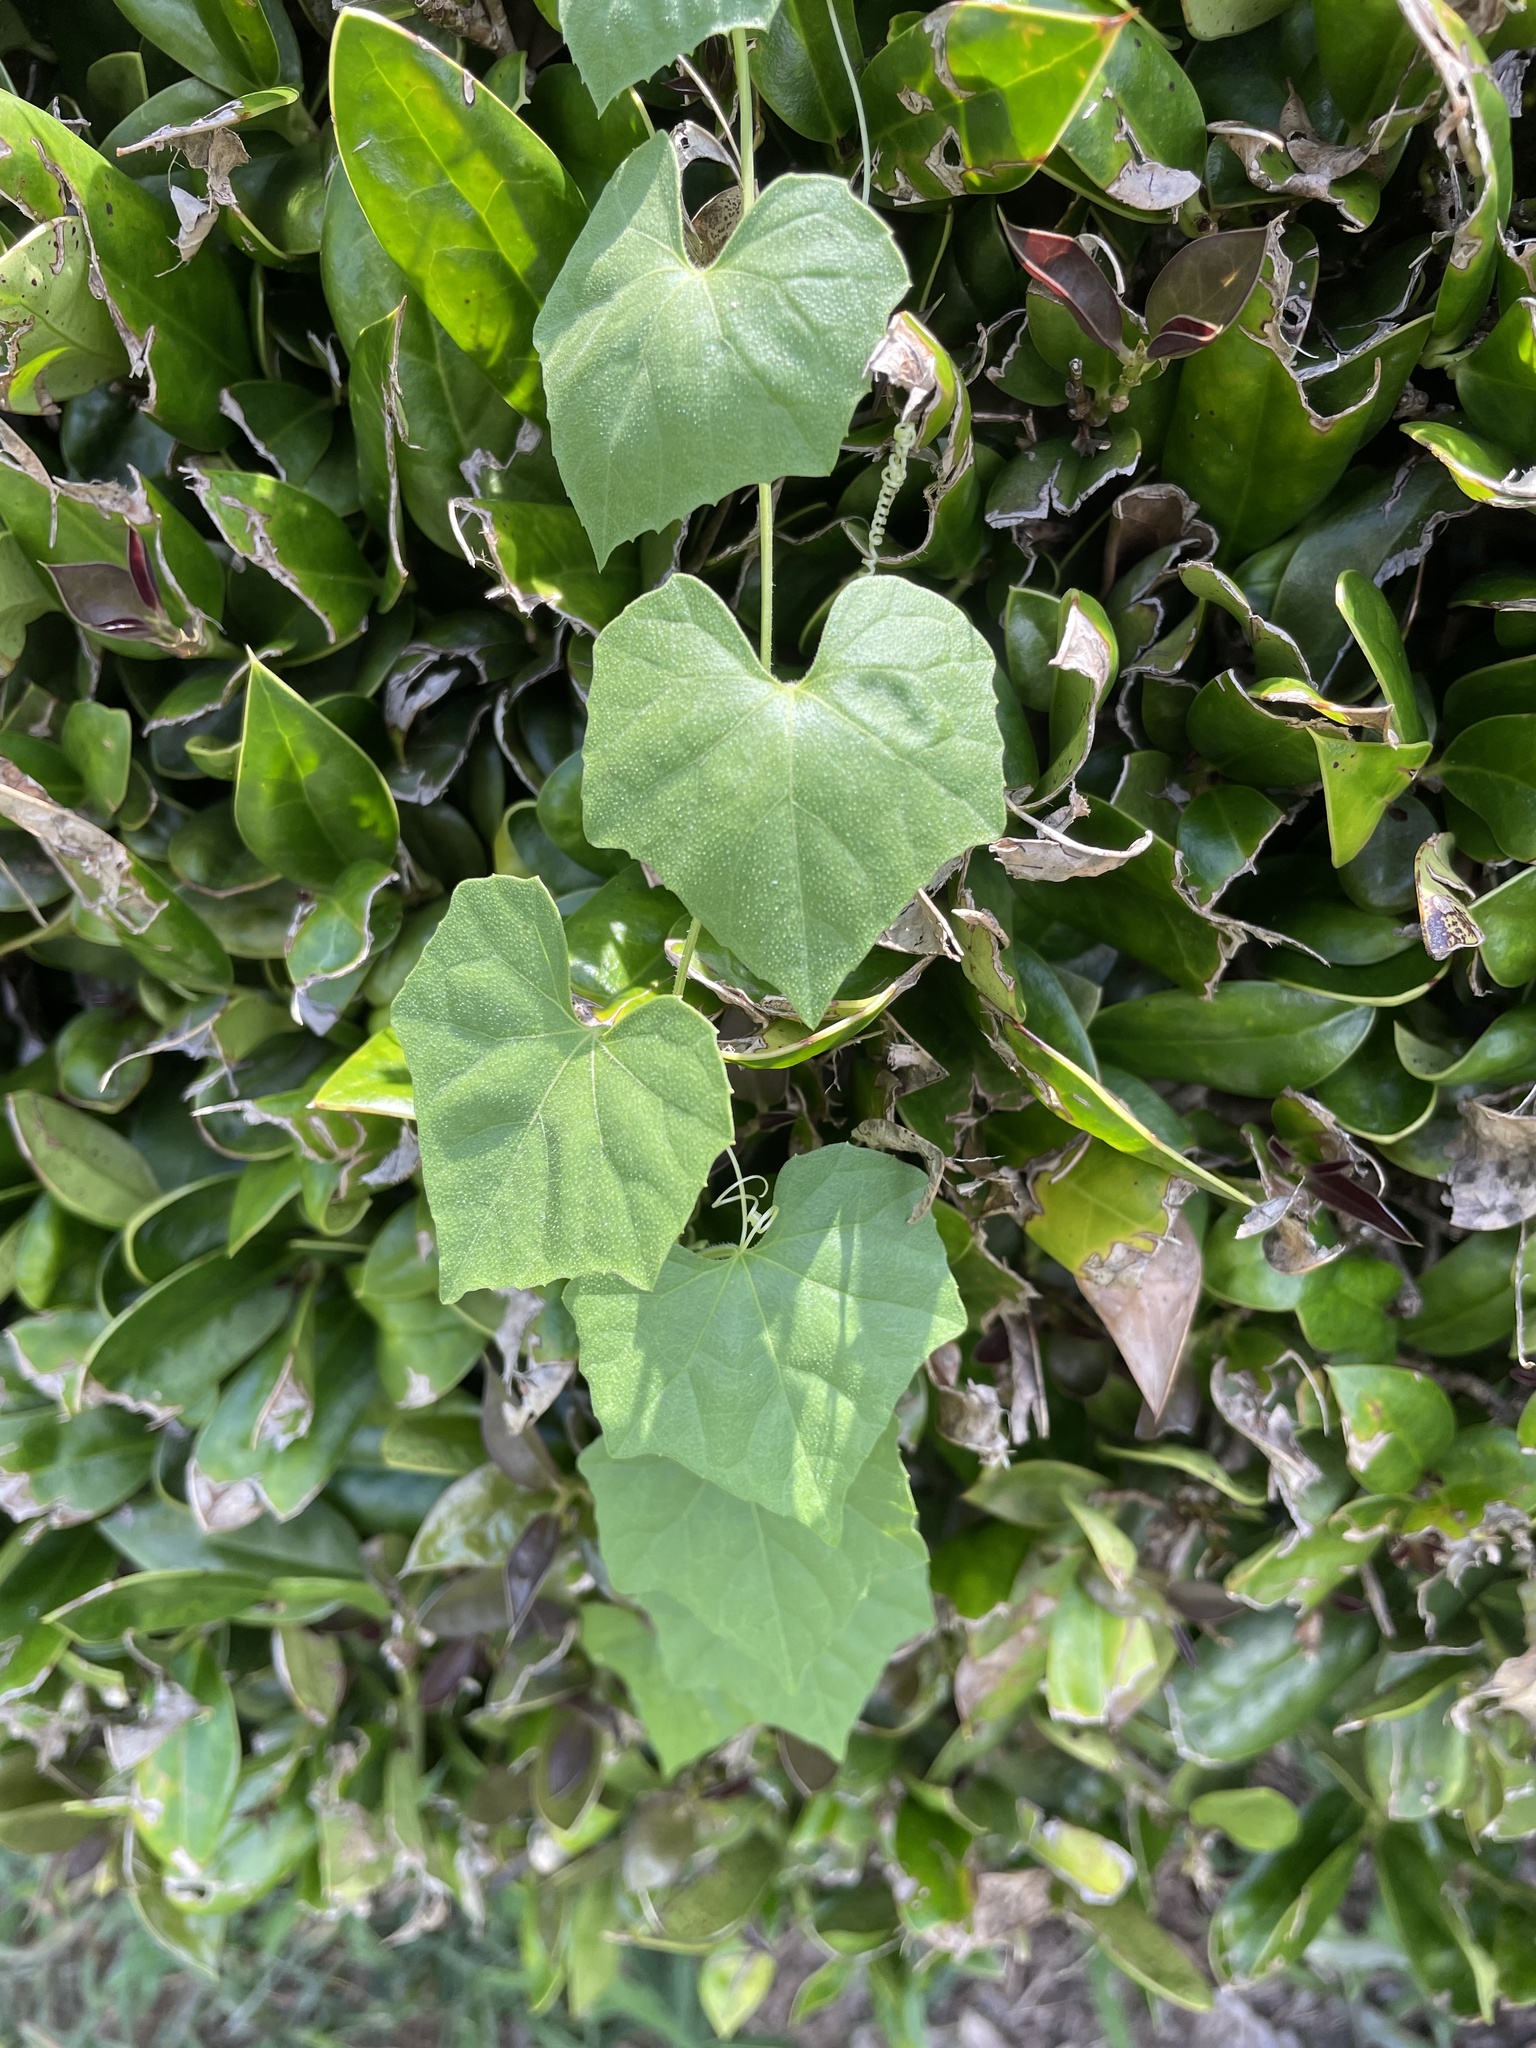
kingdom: Plantae
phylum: Tracheophyta
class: Magnoliopsida
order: Cucurbitales
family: Cucurbitaceae
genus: Melothria
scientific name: Melothria pendula
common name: Creeping-cucumber
